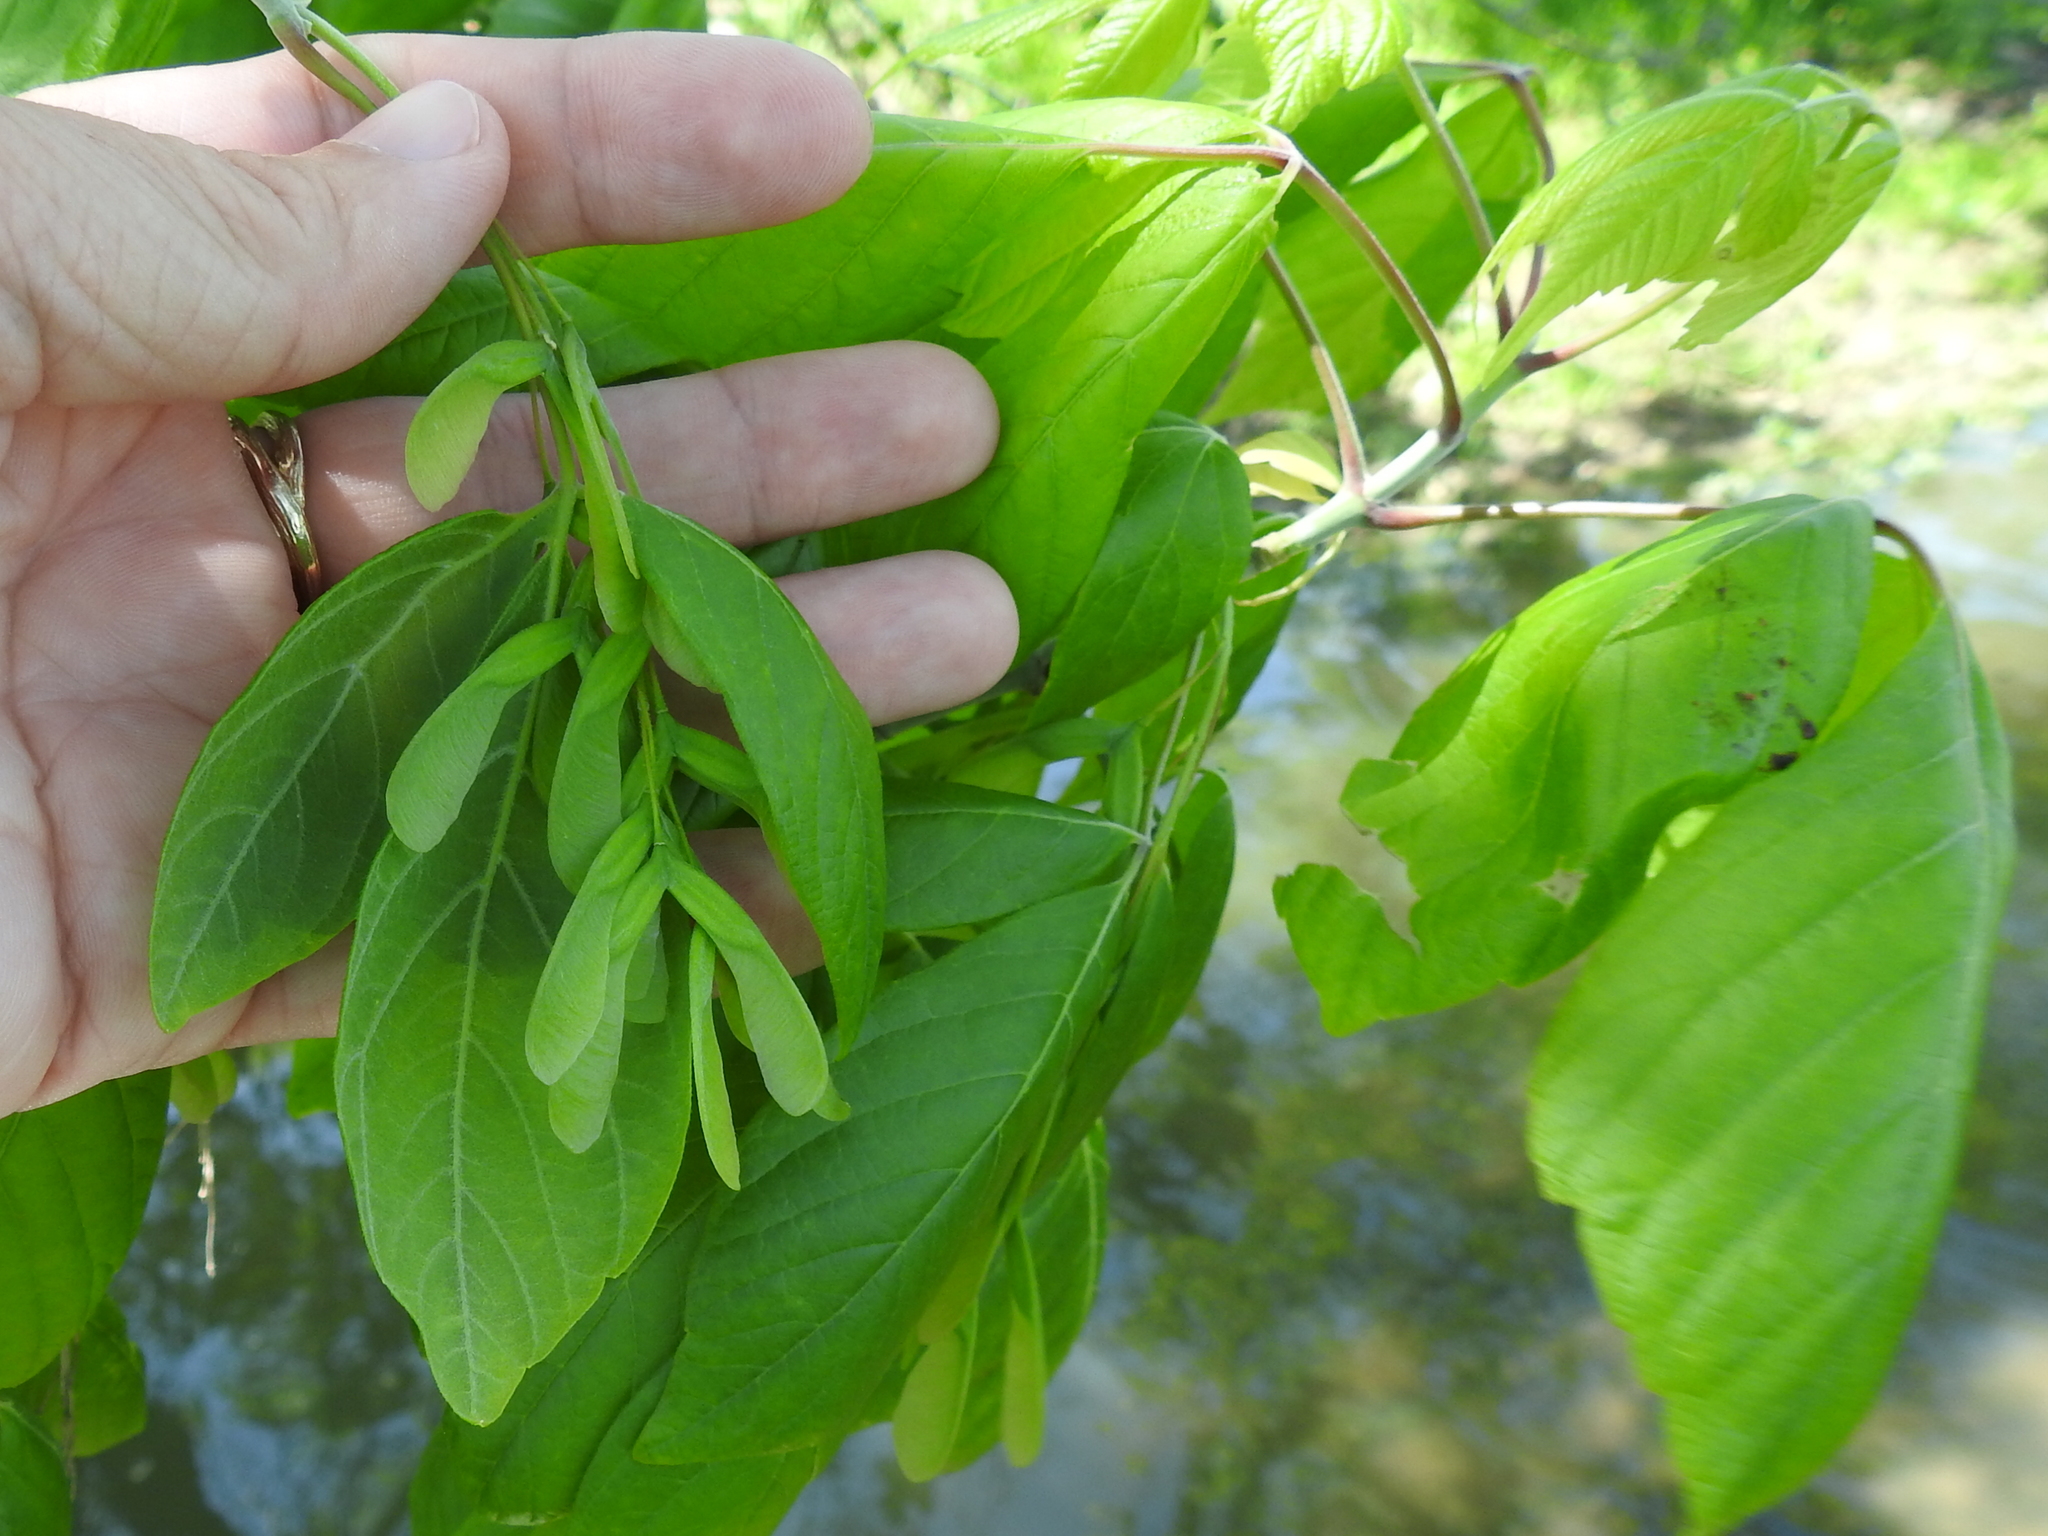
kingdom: Plantae
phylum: Tracheophyta
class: Magnoliopsida
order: Sapindales
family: Sapindaceae
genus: Acer
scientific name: Acer negundo
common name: Ashleaf maple
